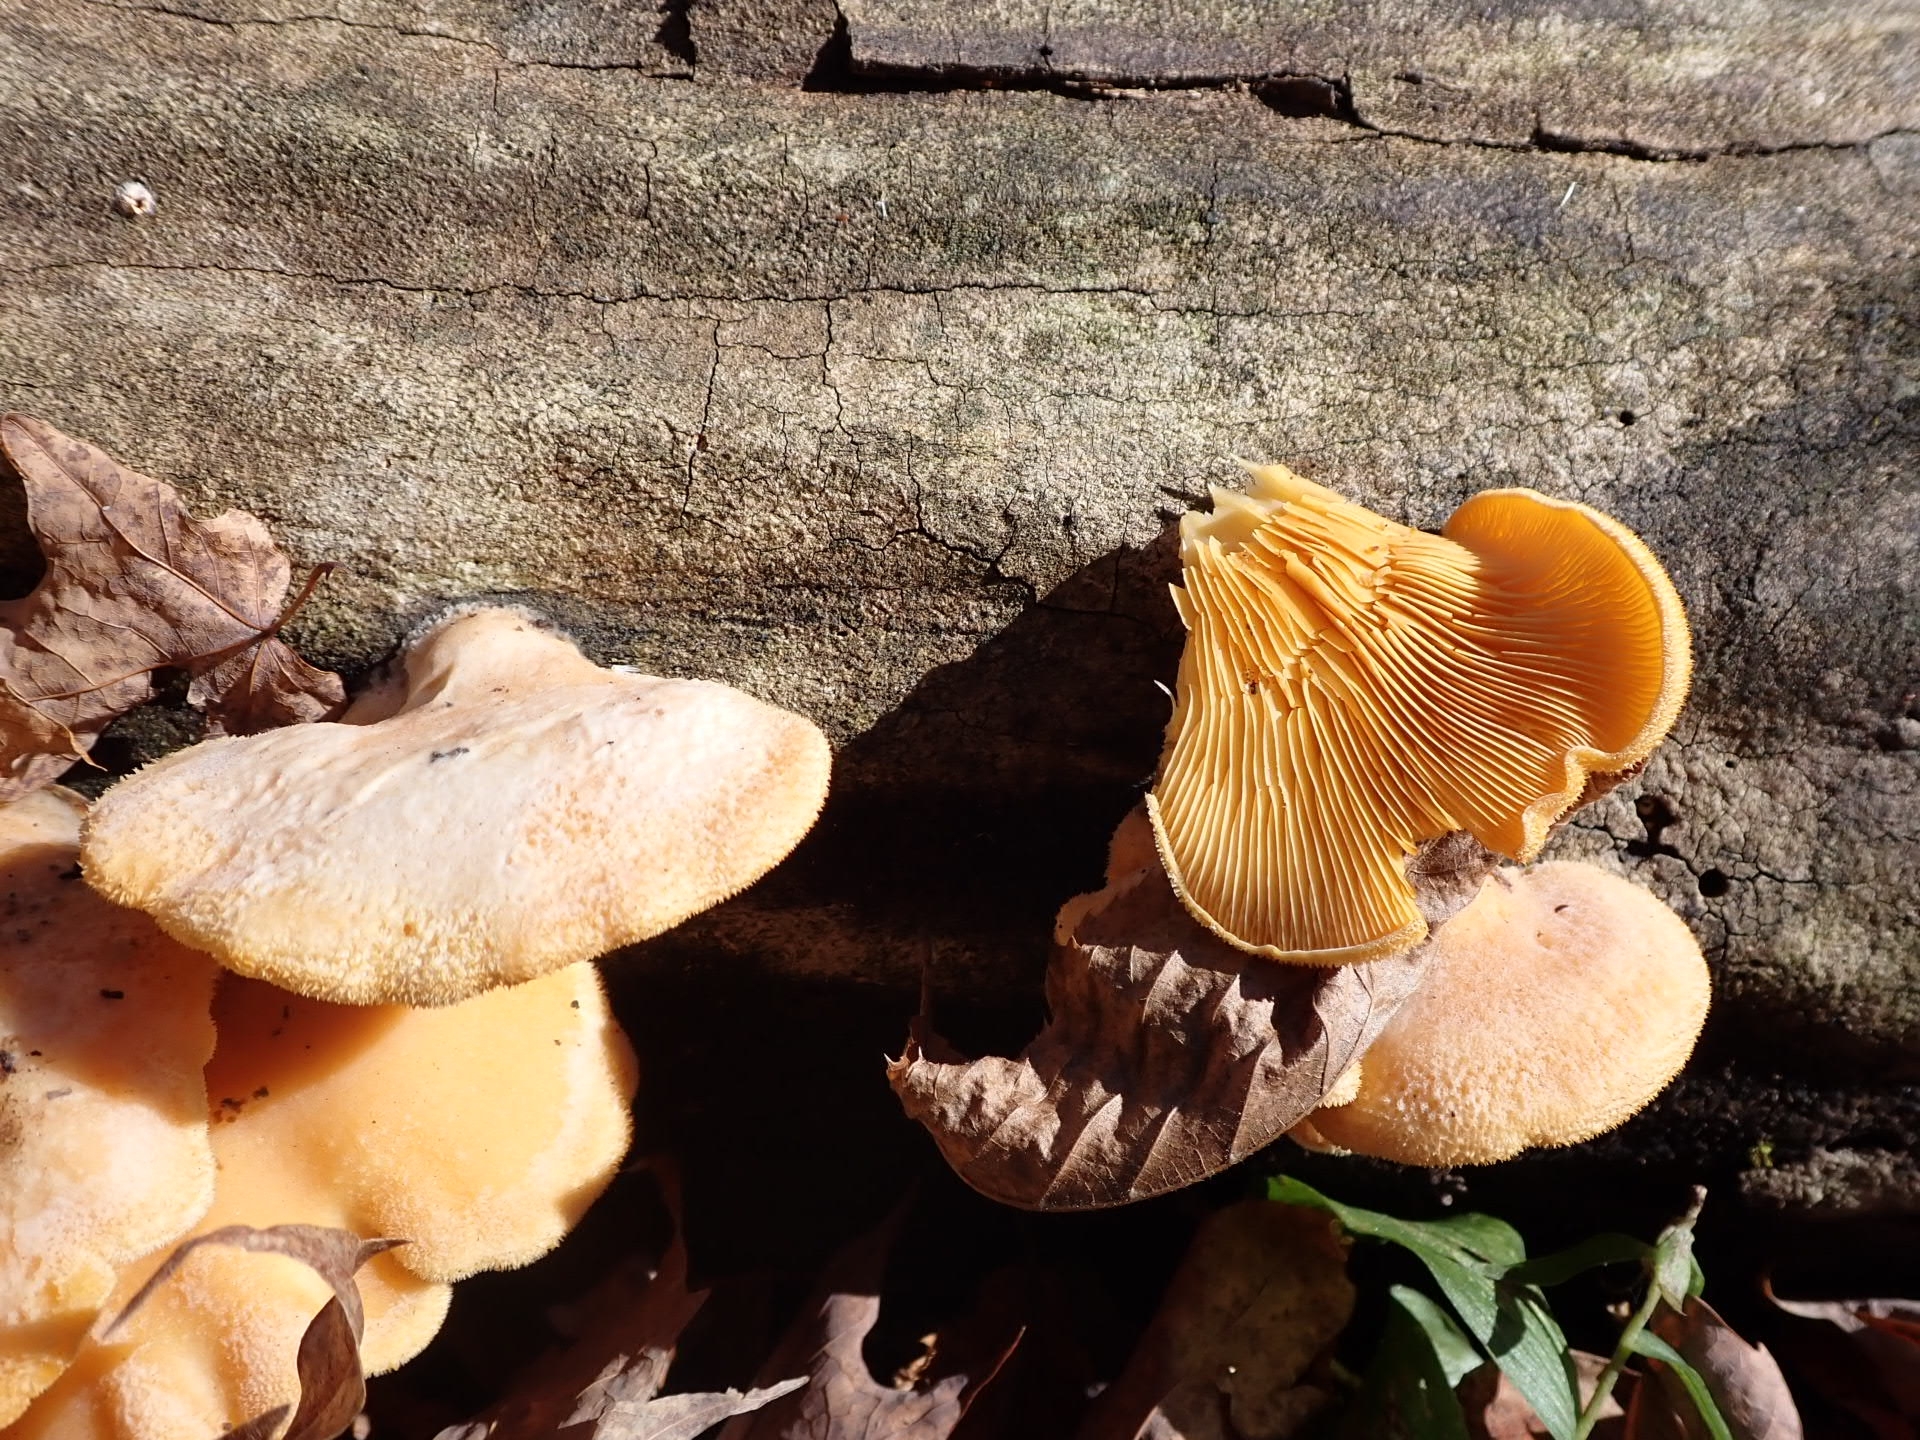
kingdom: Fungi
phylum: Basidiomycota
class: Agaricomycetes
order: Agaricales
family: Phyllotopsidaceae
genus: Phyllotopsis
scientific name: Phyllotopsis nidulans
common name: Orange mock oyster
